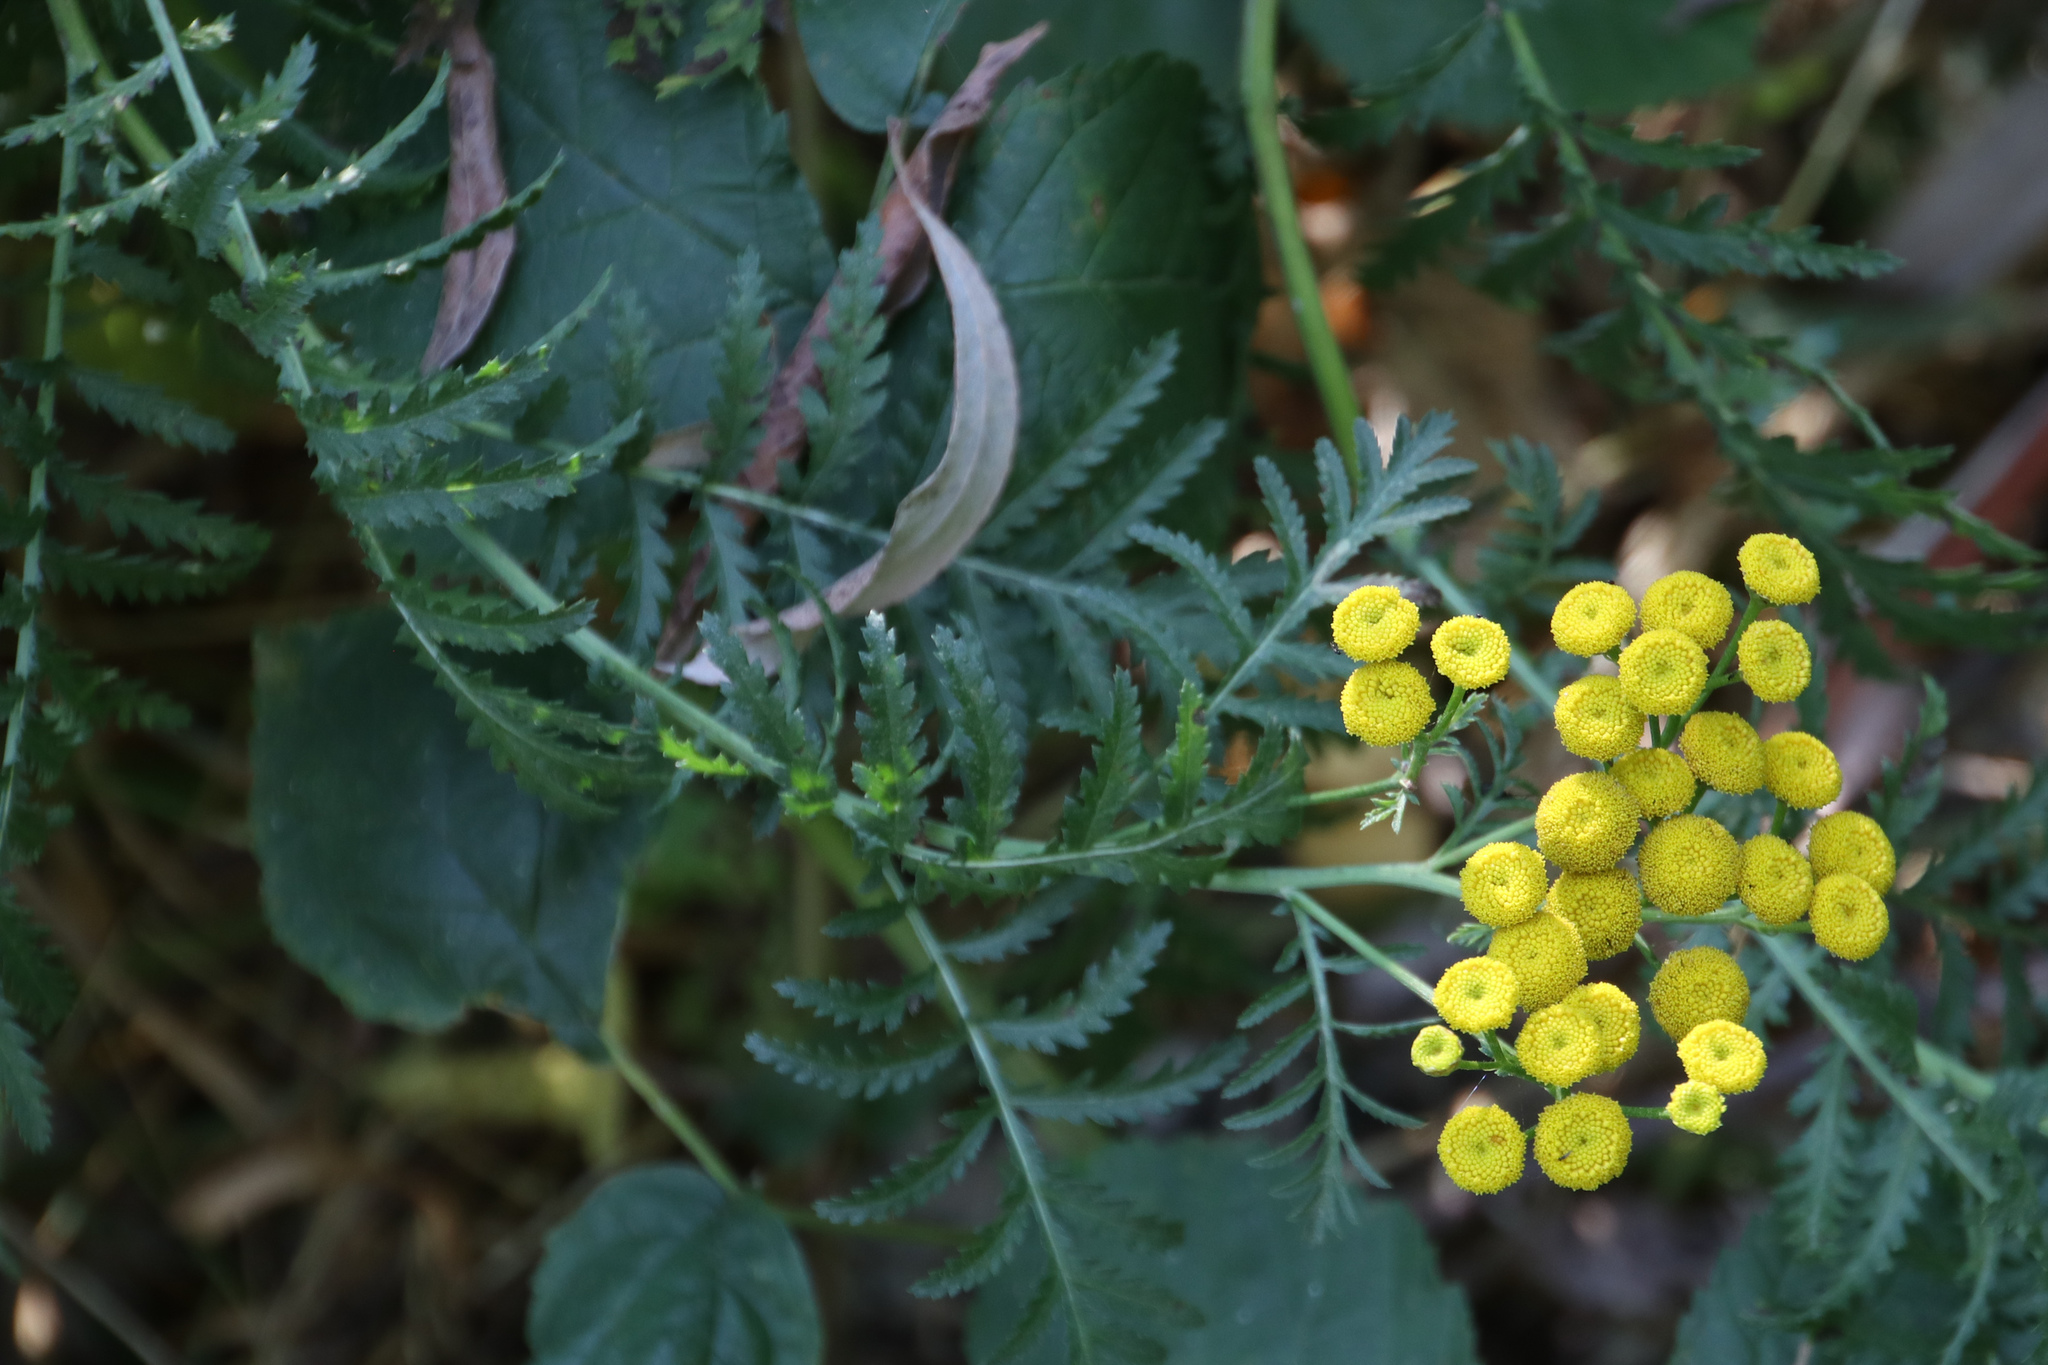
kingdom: Plantae
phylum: Tracheophyta
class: Magnoliopsida
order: Asterales
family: Asteraceae
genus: Tanacetum
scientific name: Tanacetum vulgare
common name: Common tansy
